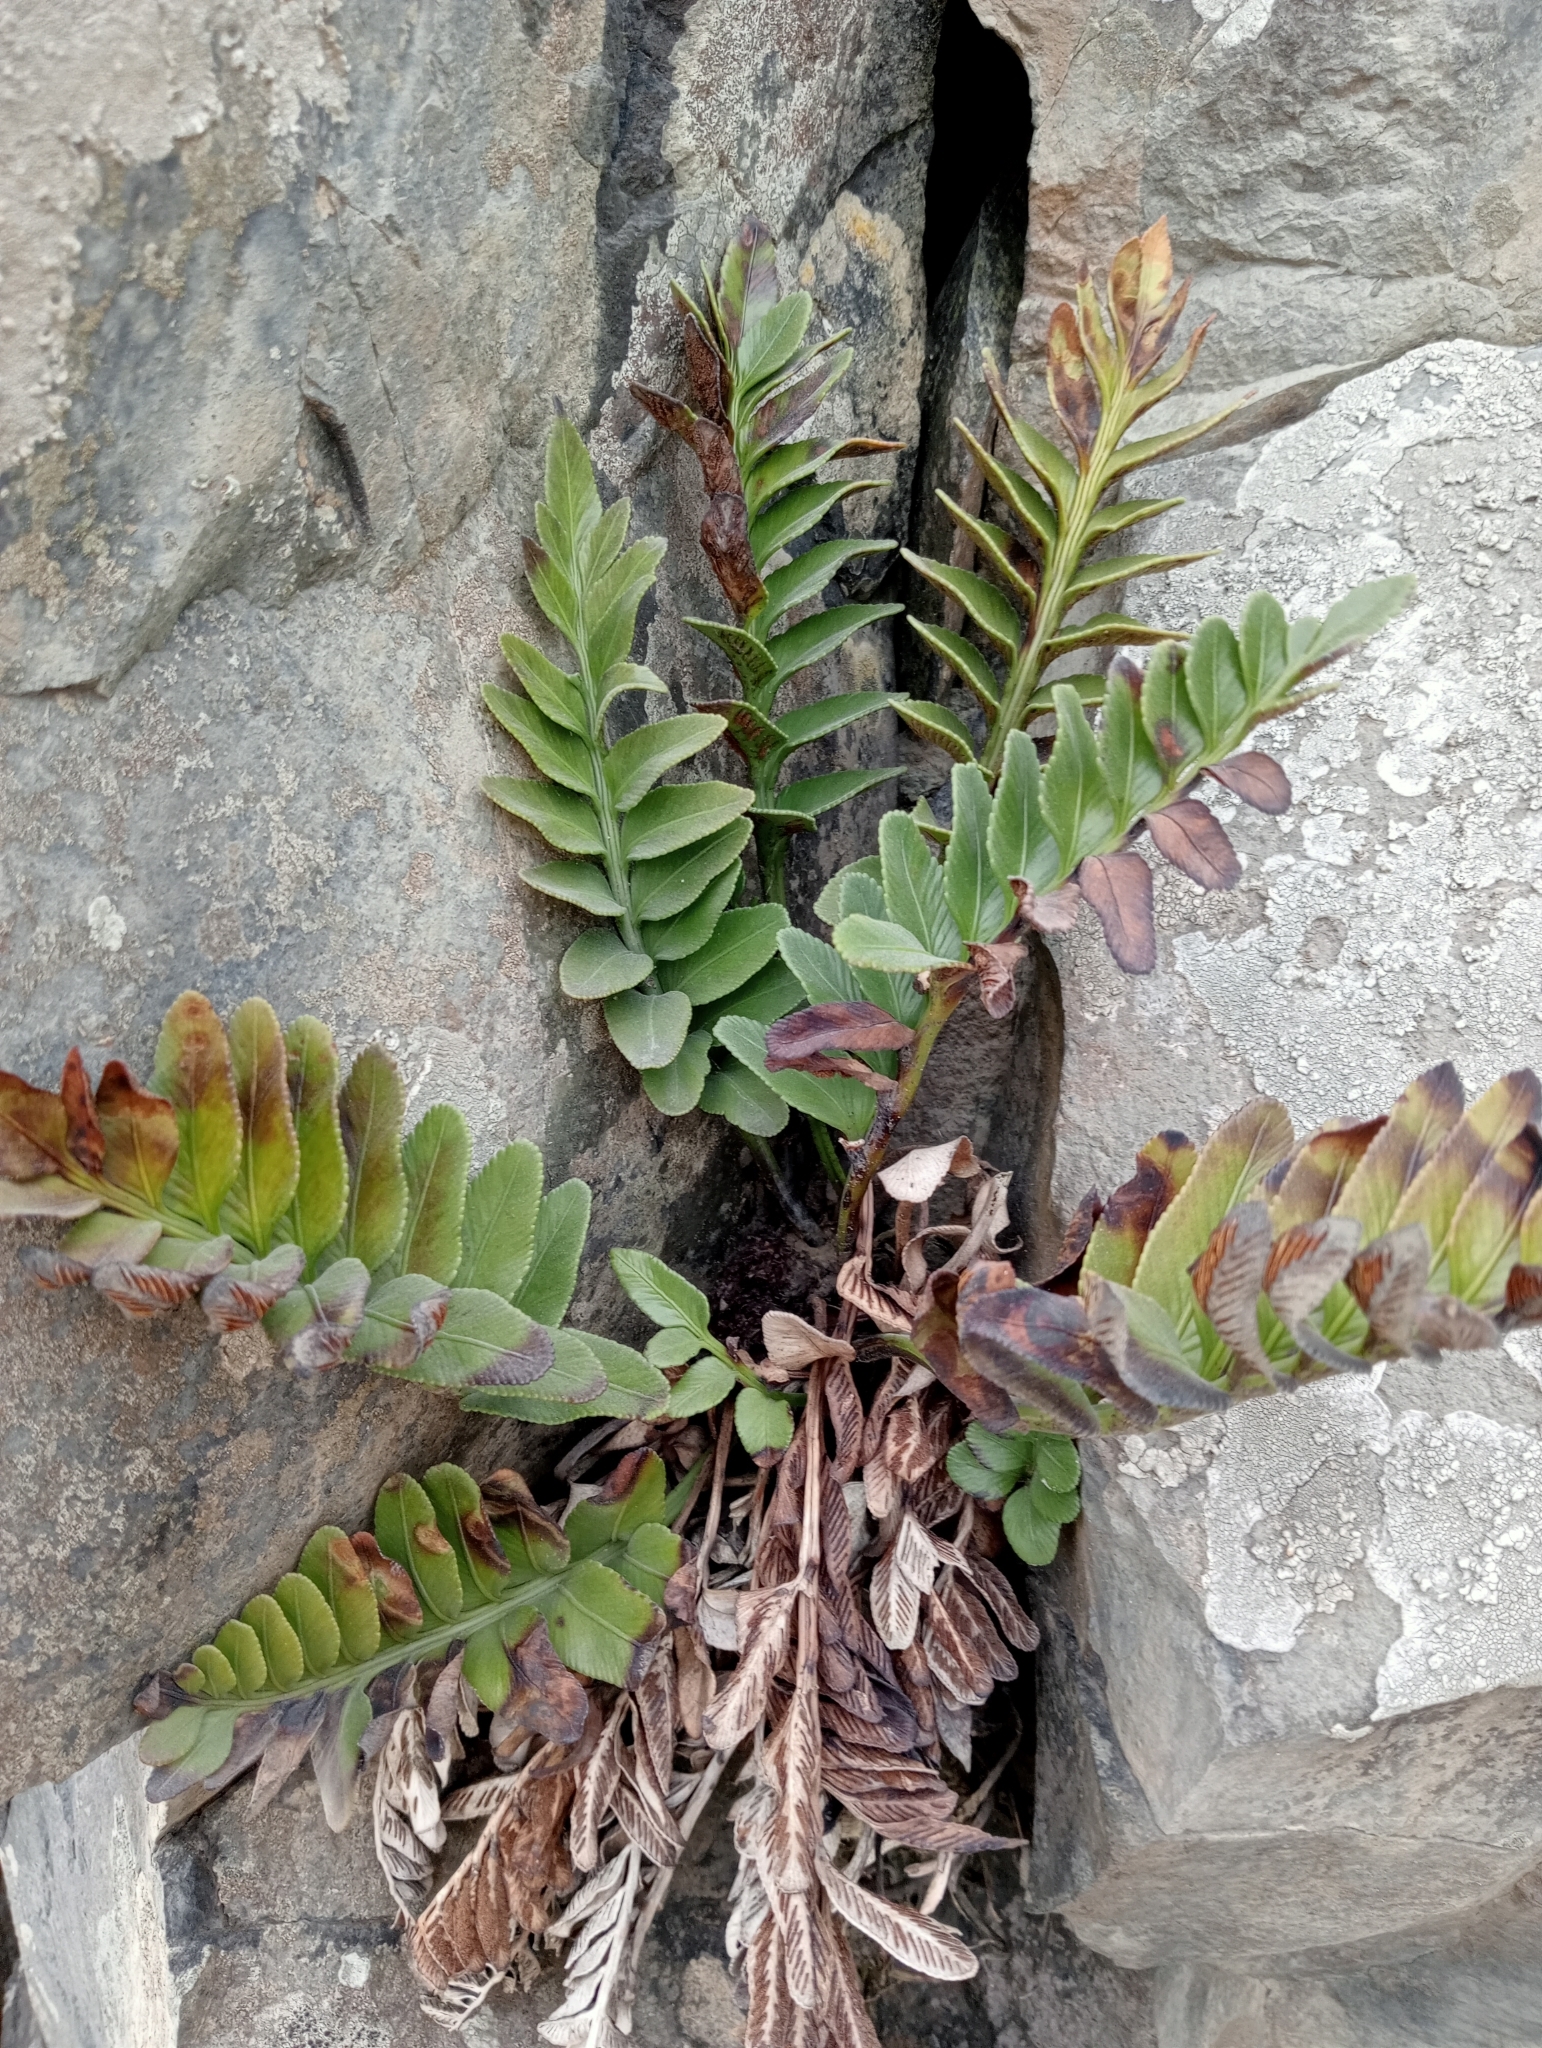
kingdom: Plantae
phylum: Tracheophyta
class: Polypodiopsida
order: Polypodiales
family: Aspleniaceae
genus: Asplenium
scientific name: Asplenium obtusatum
